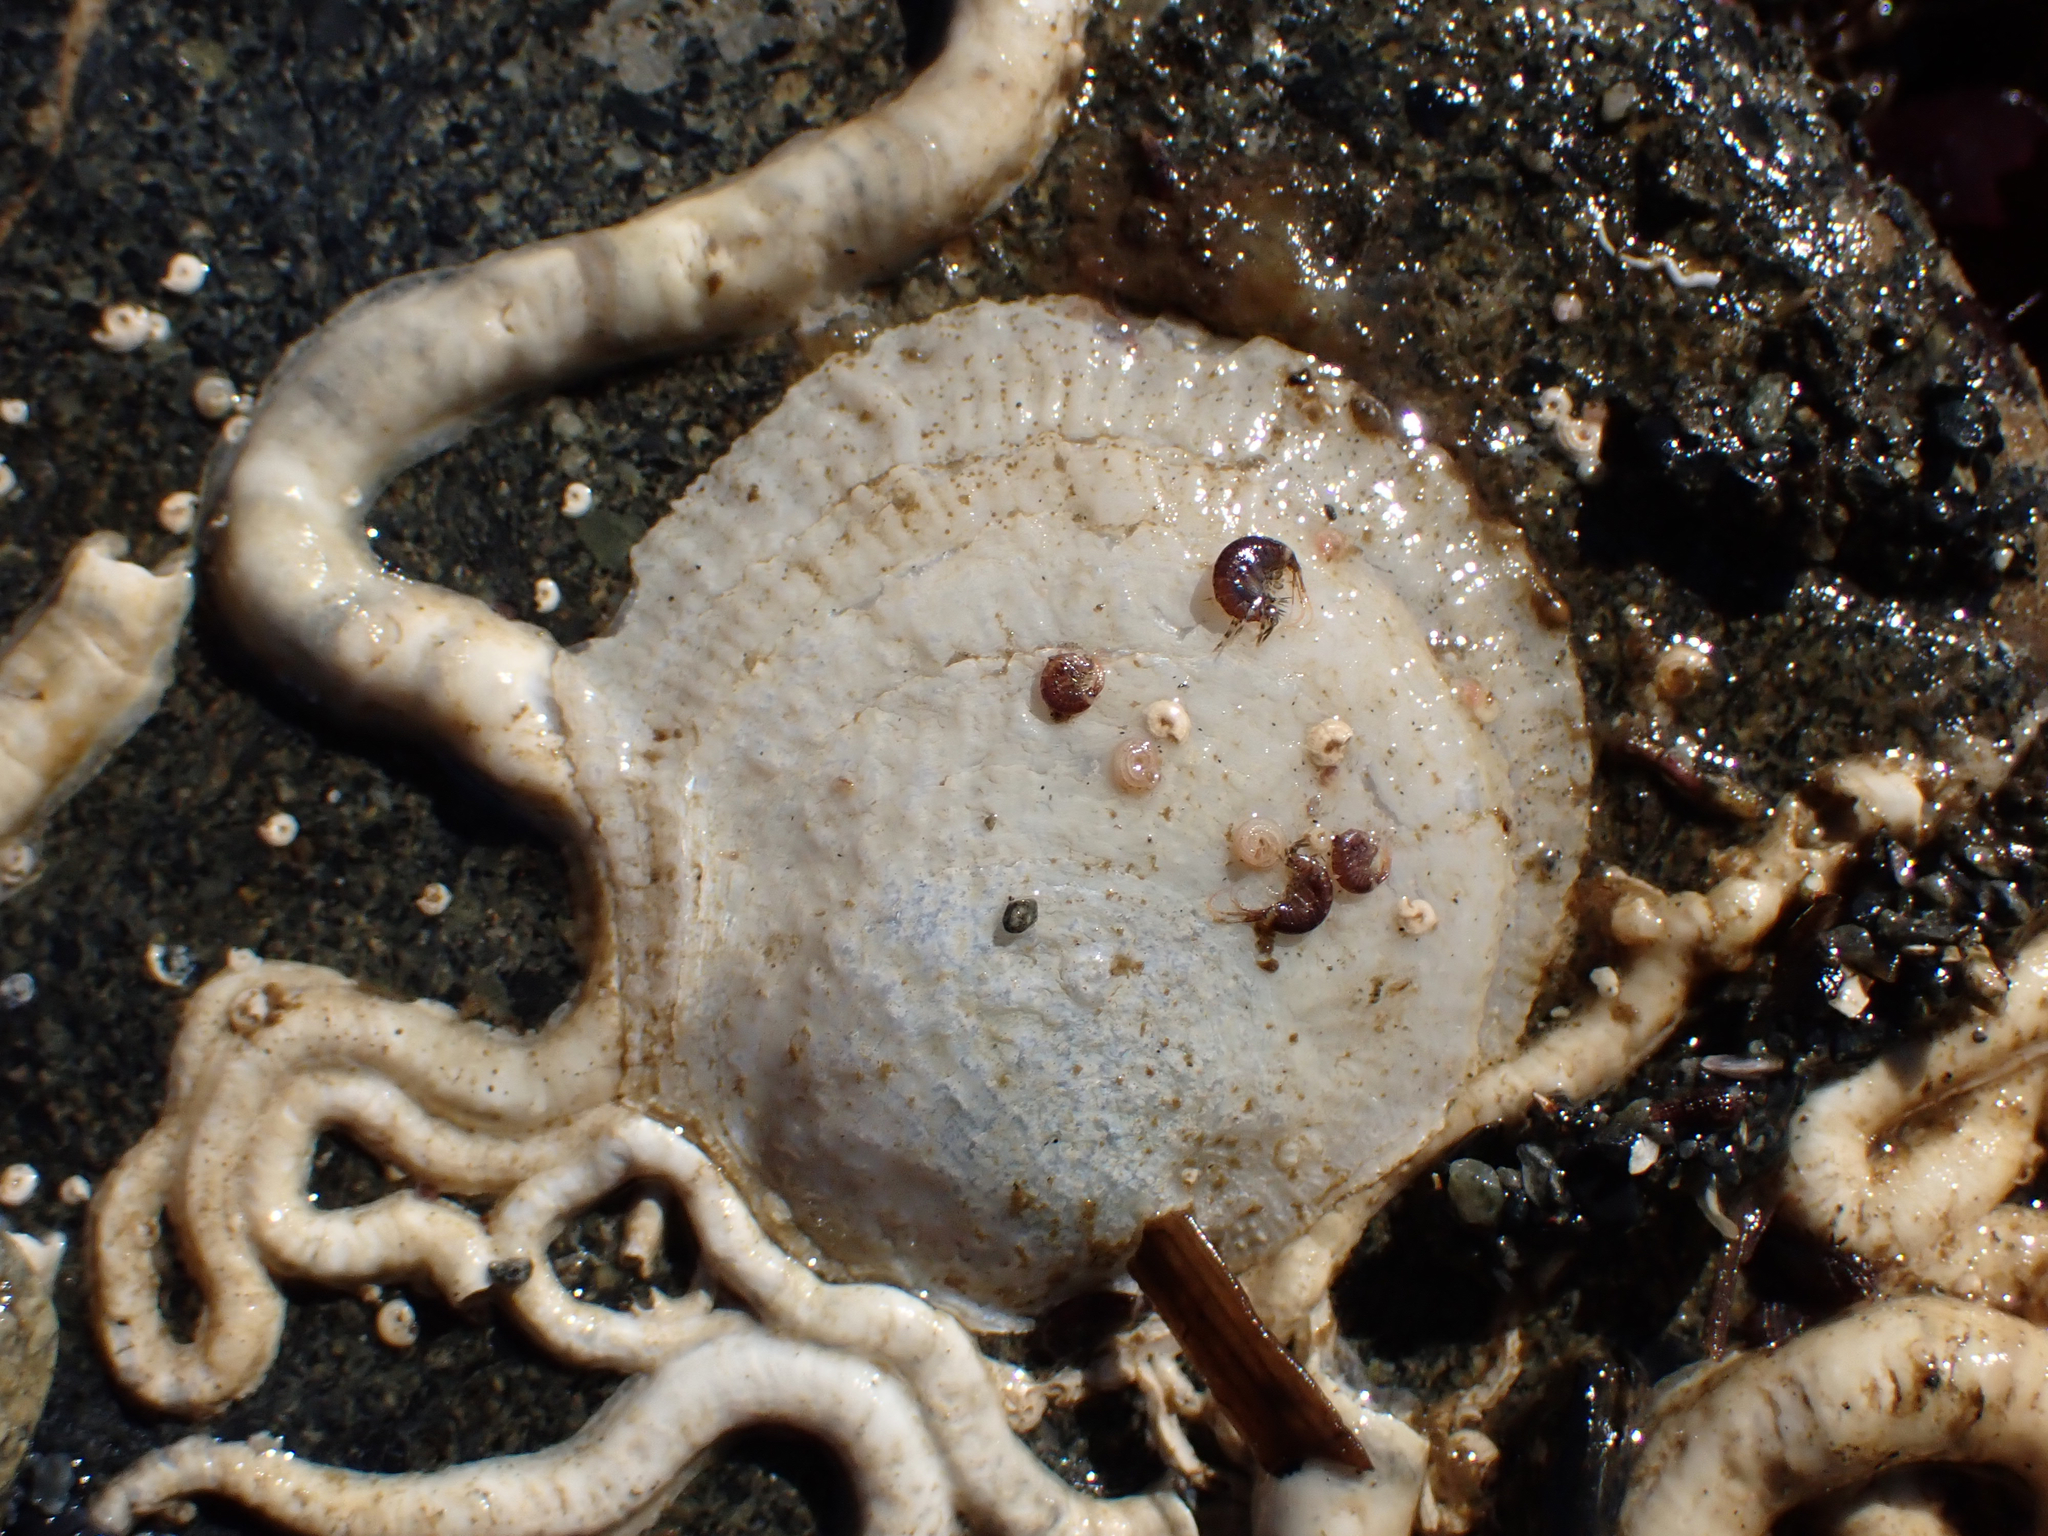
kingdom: Animalia
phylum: Mollusca
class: Bivalvia
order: Pectinida
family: Anomiidae
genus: Pododesmus
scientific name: Pododesmus macrochisma
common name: Alaska jingle
